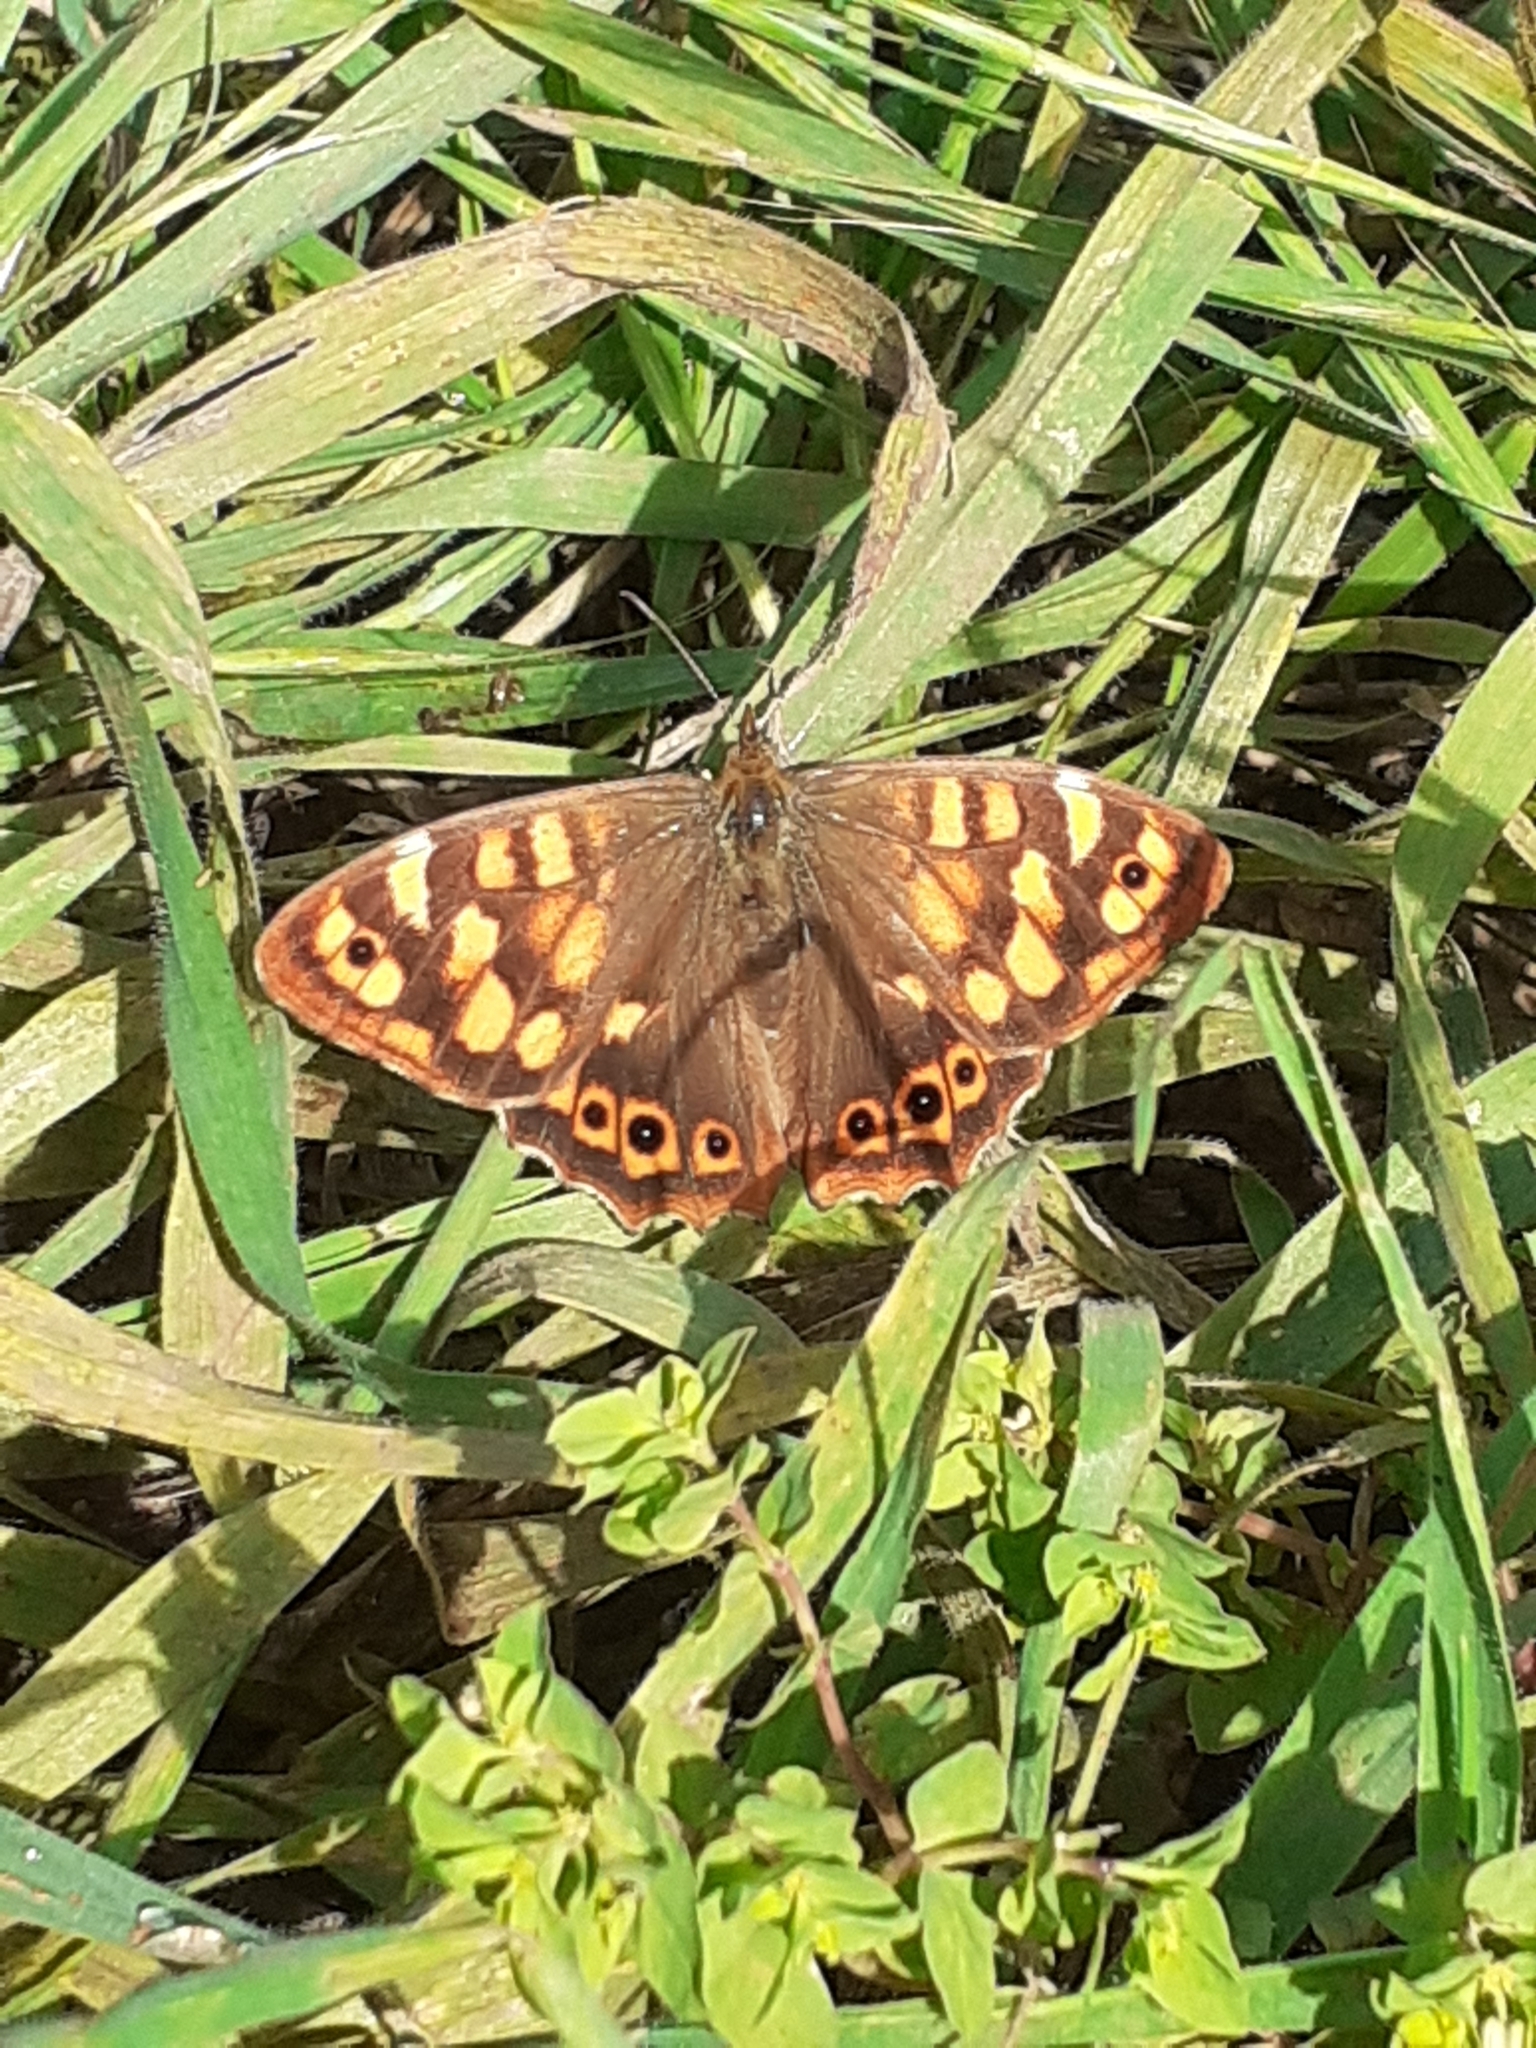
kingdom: Animalia
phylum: Arthropoda
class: Insecta
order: Lepidoptera
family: Nymphalidae
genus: Pararge
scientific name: Pararge aegeria
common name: Speckled wood
